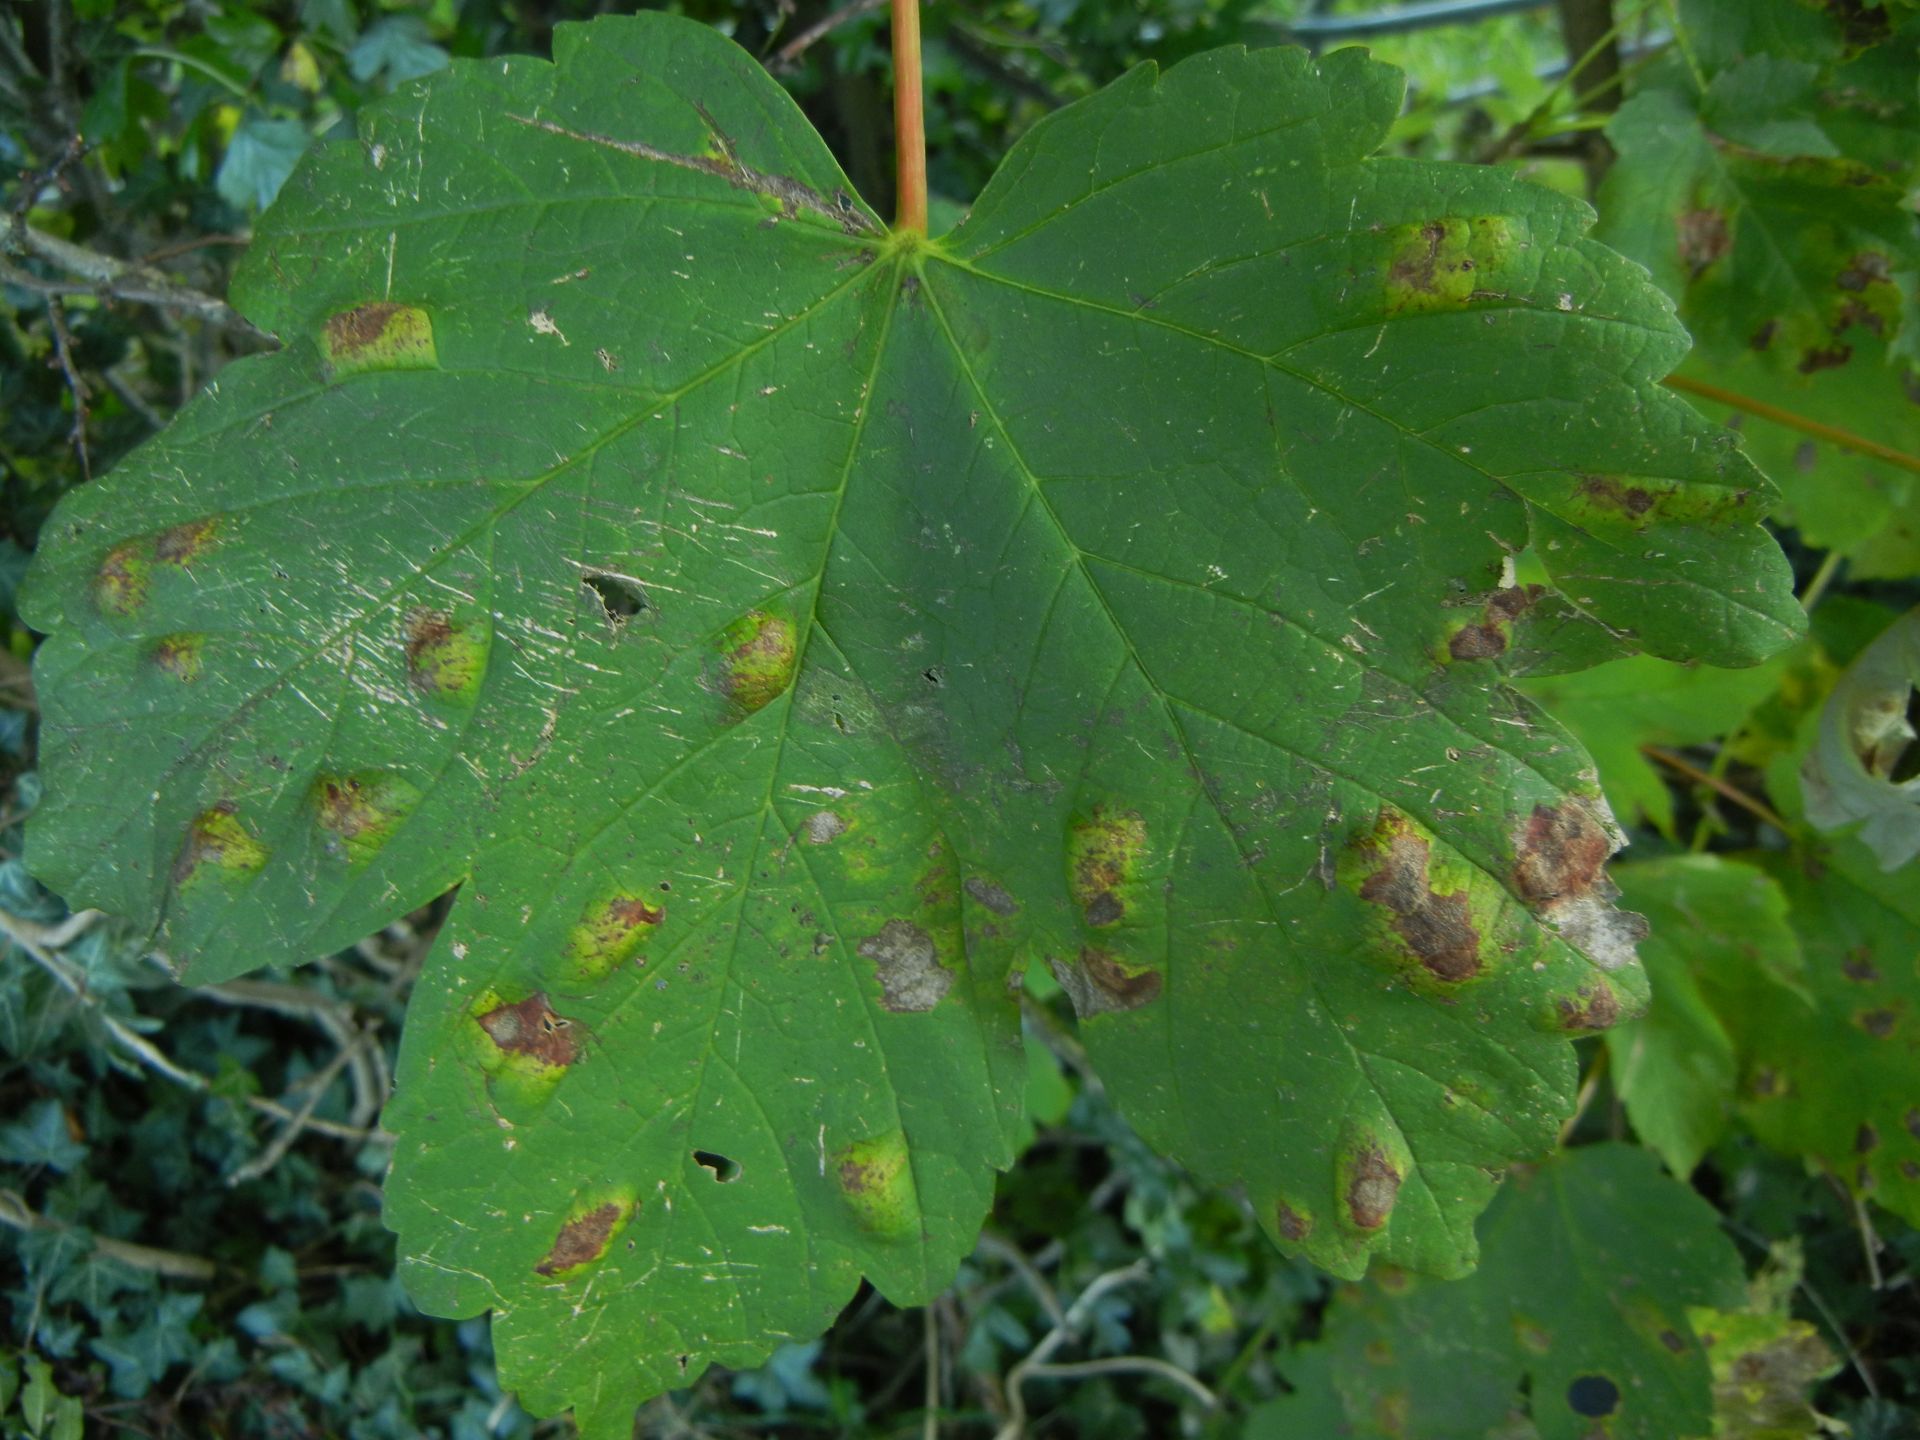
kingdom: Animalia
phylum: Arthropoda
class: Arachnida
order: Trombidiformes
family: Eriophyidae
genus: Aceria
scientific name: Aceria pseudoplatani
